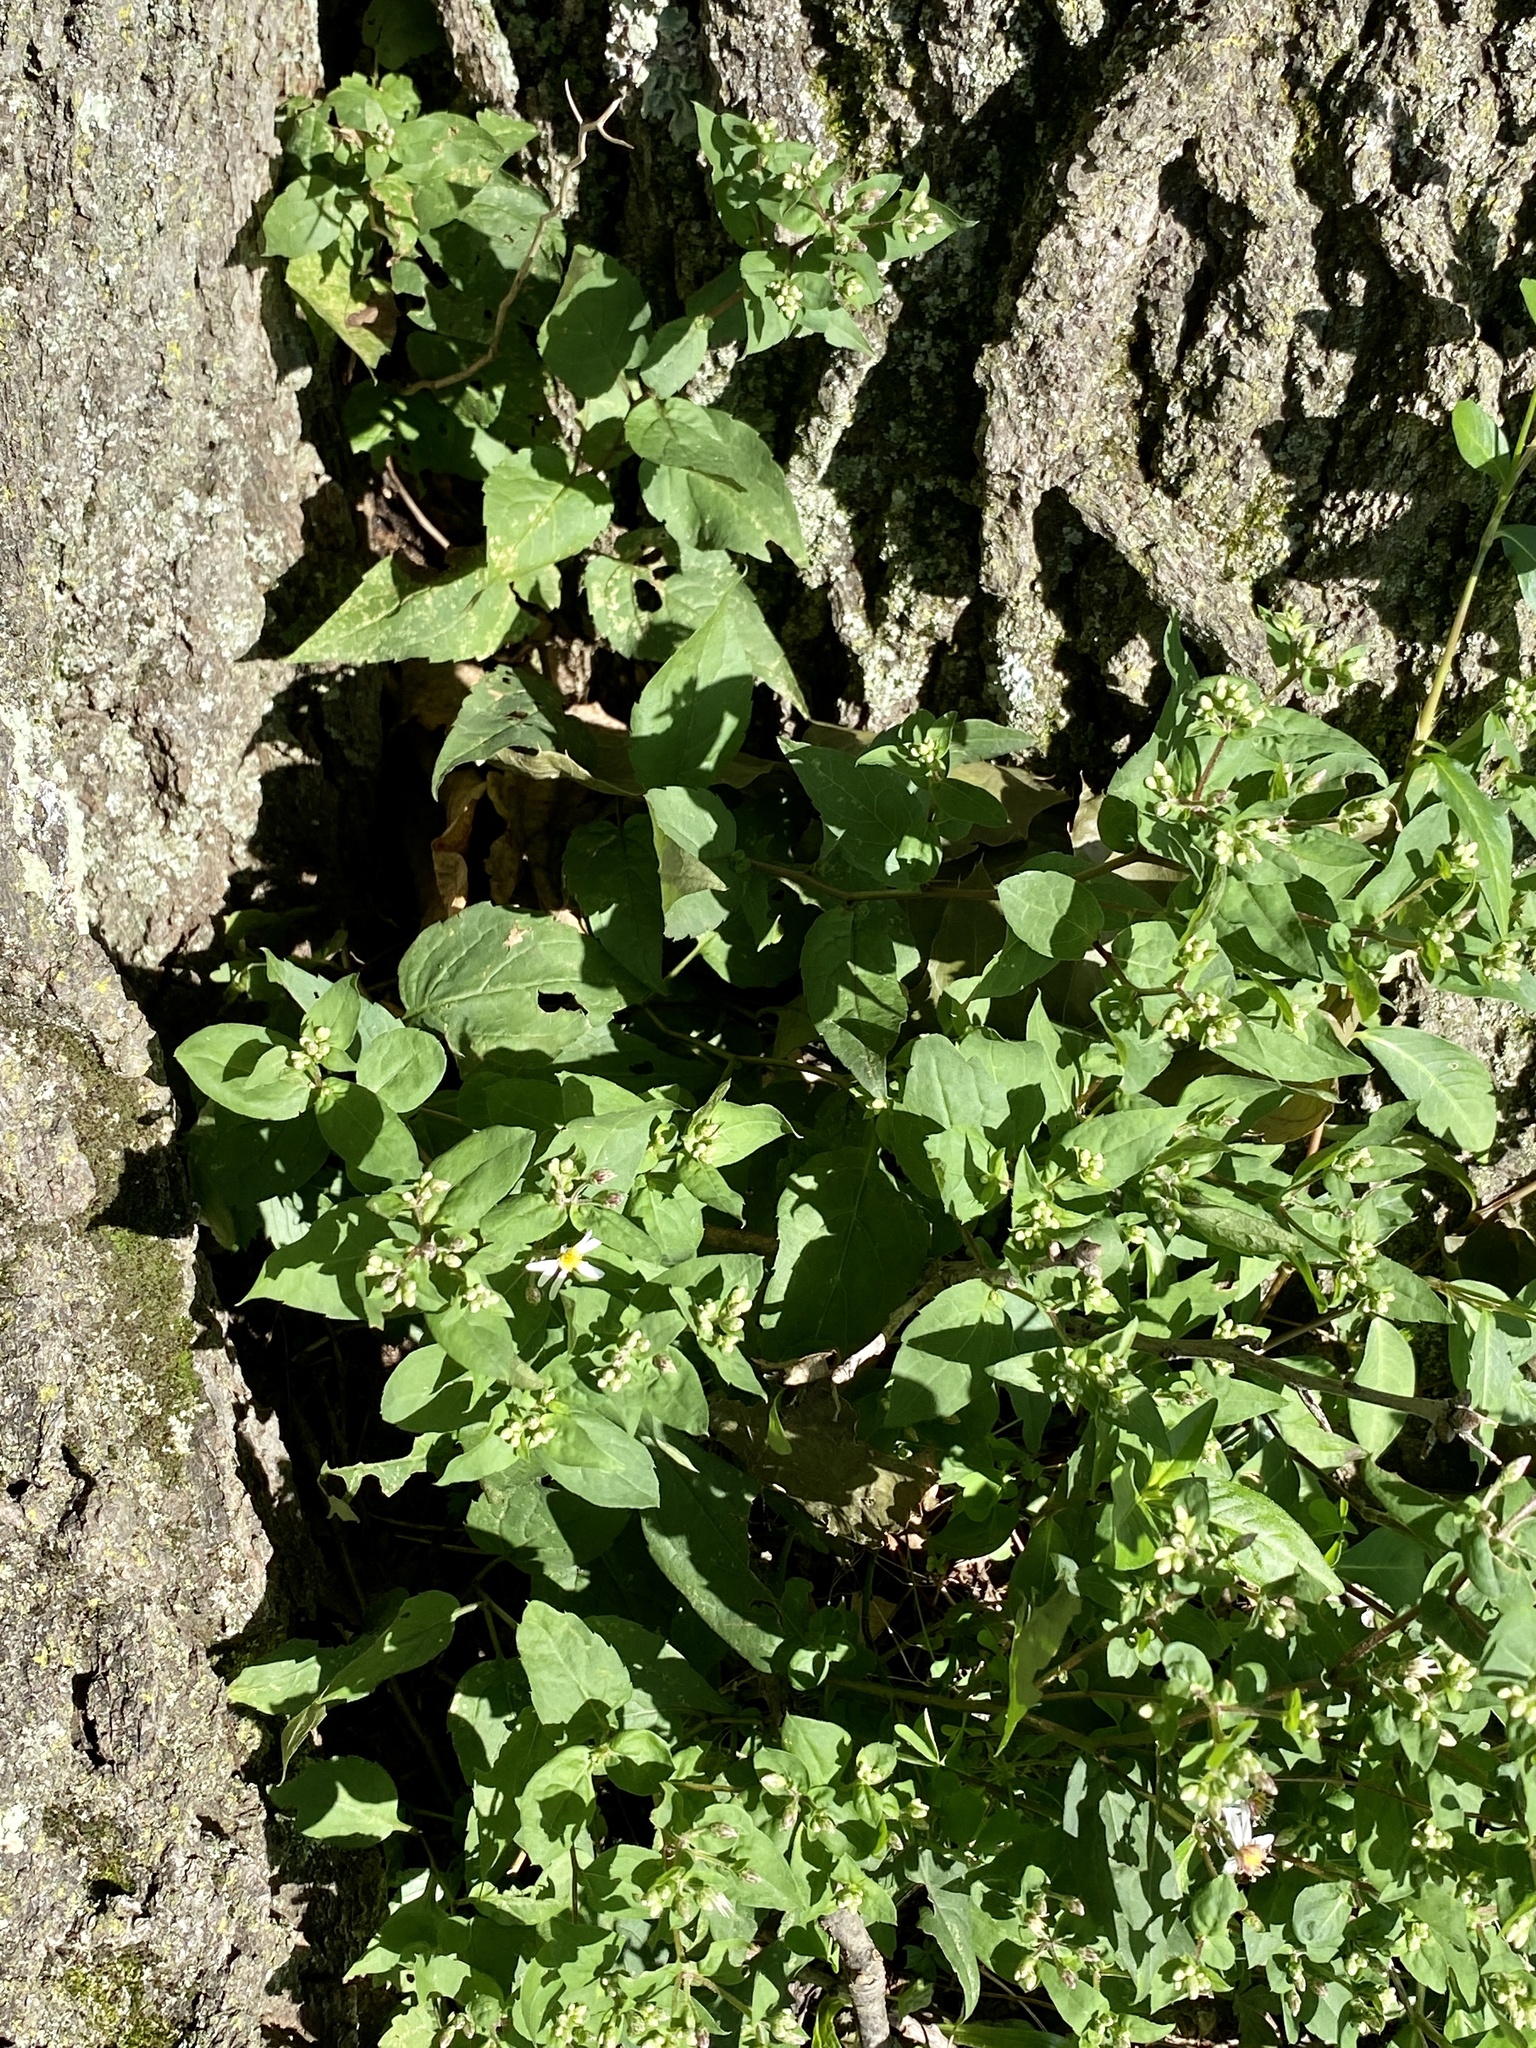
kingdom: Plantae
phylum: Tracheophyta
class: Magnoliopsida
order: Asterales
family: Asteraceae
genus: Eurybia
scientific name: Eurybia divaricata
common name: White wood aster
